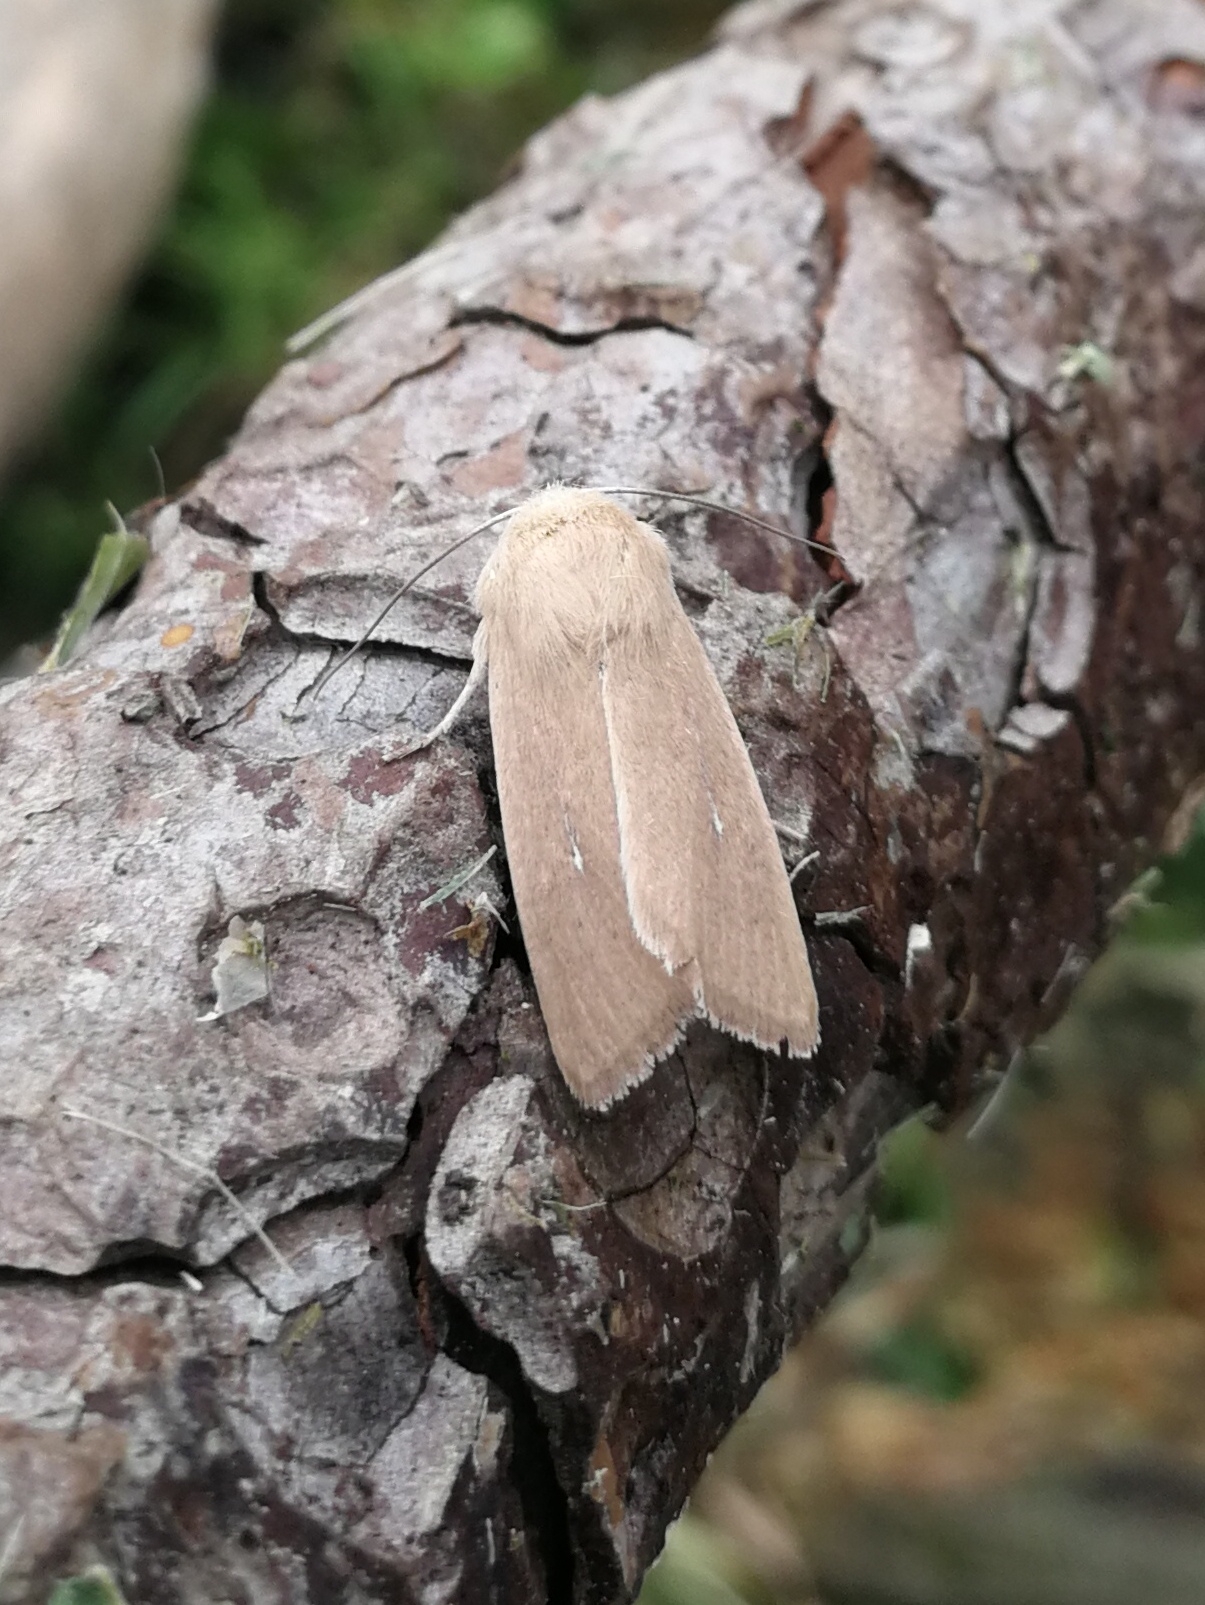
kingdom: Animalia
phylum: Arthropoda
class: Insecta
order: Lepidoptera
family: Noctuidae
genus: Mythimna
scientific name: Mythimna sicula
